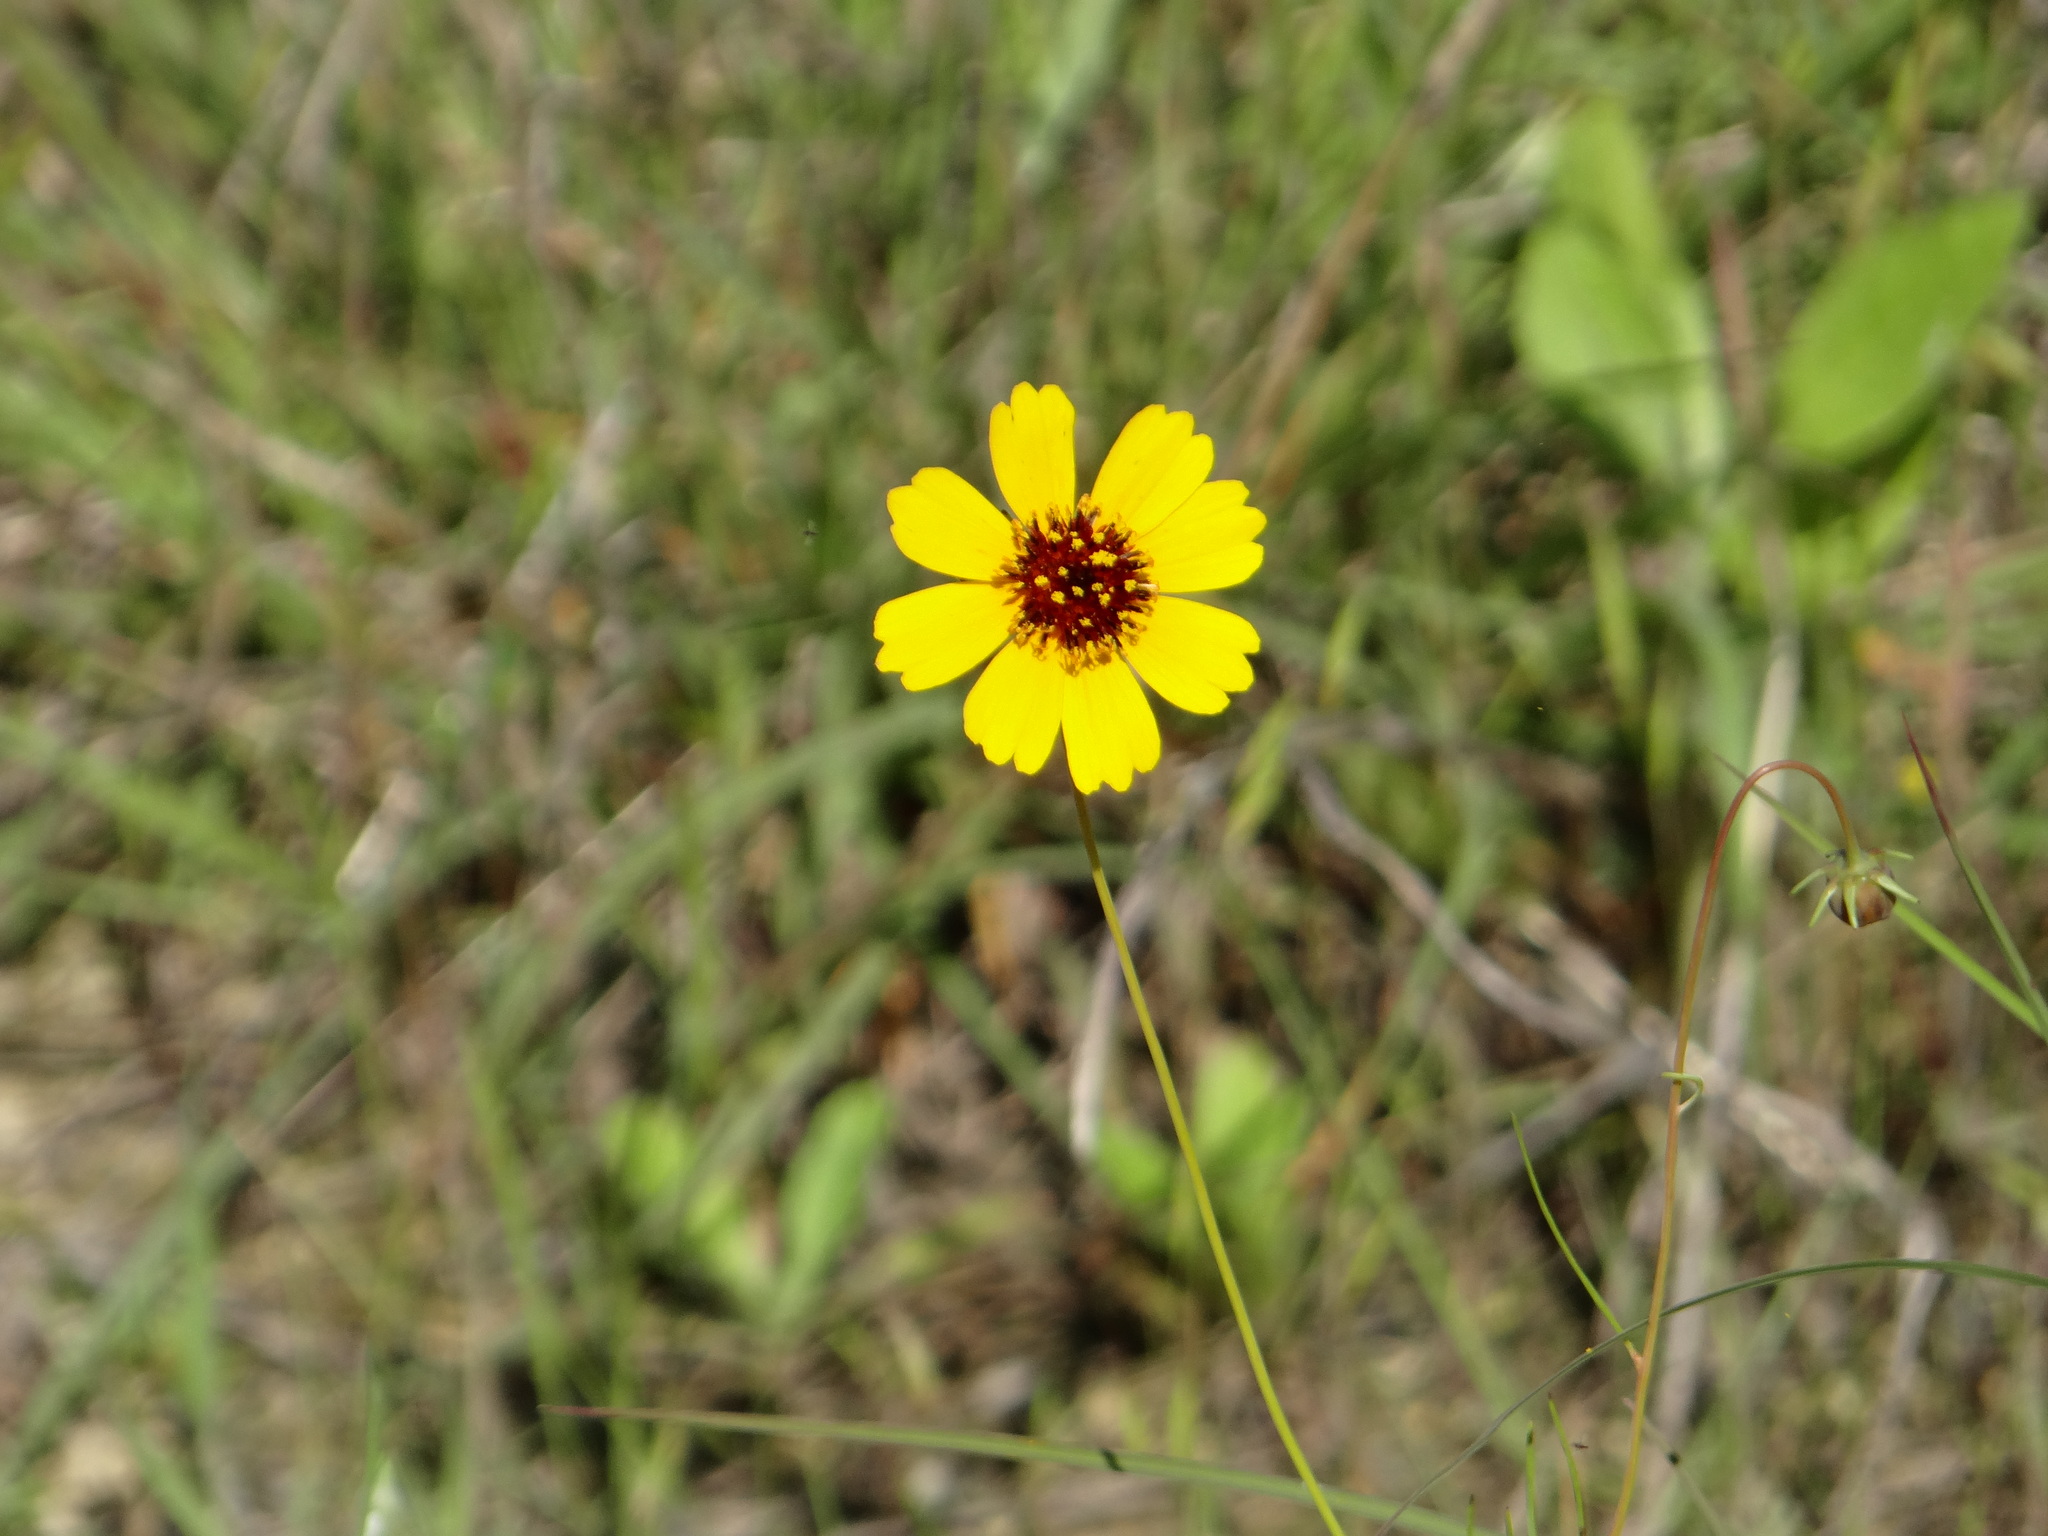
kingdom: Plantae
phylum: Tracheophyta
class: Magnoliopsida
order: Asterales
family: Asteraceae
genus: Thelesperma
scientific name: Thelesperma filifolium
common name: Stiff greenthread
